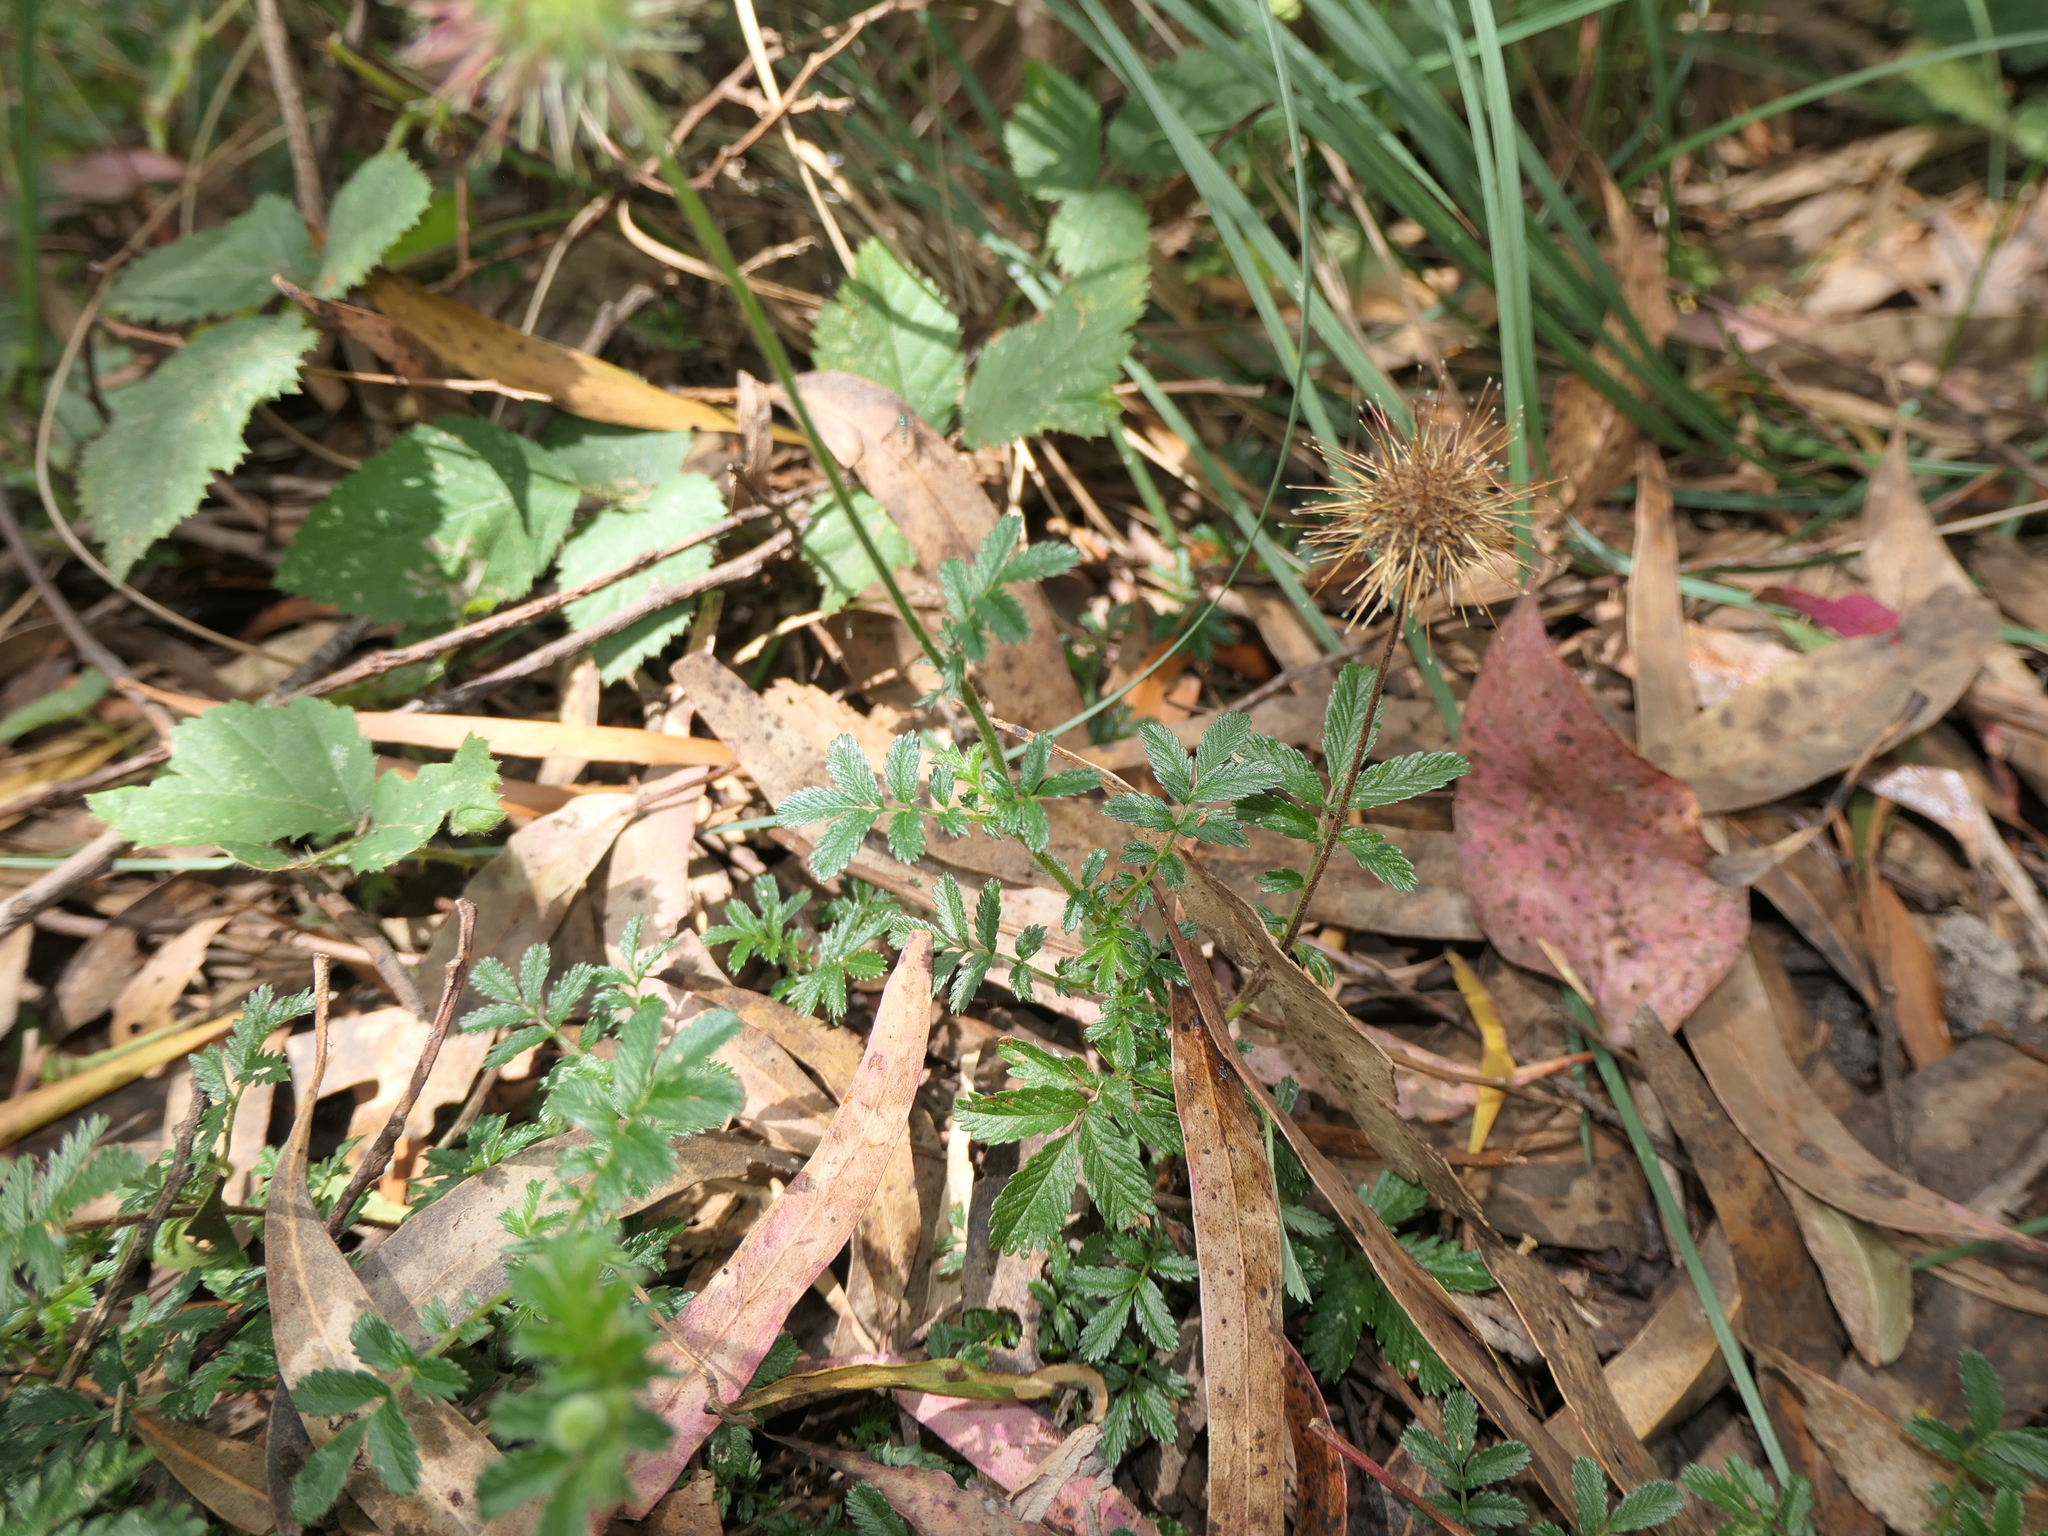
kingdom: Plantae
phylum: Tracheophyta
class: Magnoliopsida
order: Rosales
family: Rosaceae
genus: Acaena
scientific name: Acaena novae-zelandiae
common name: Pirri-pirri-bur
